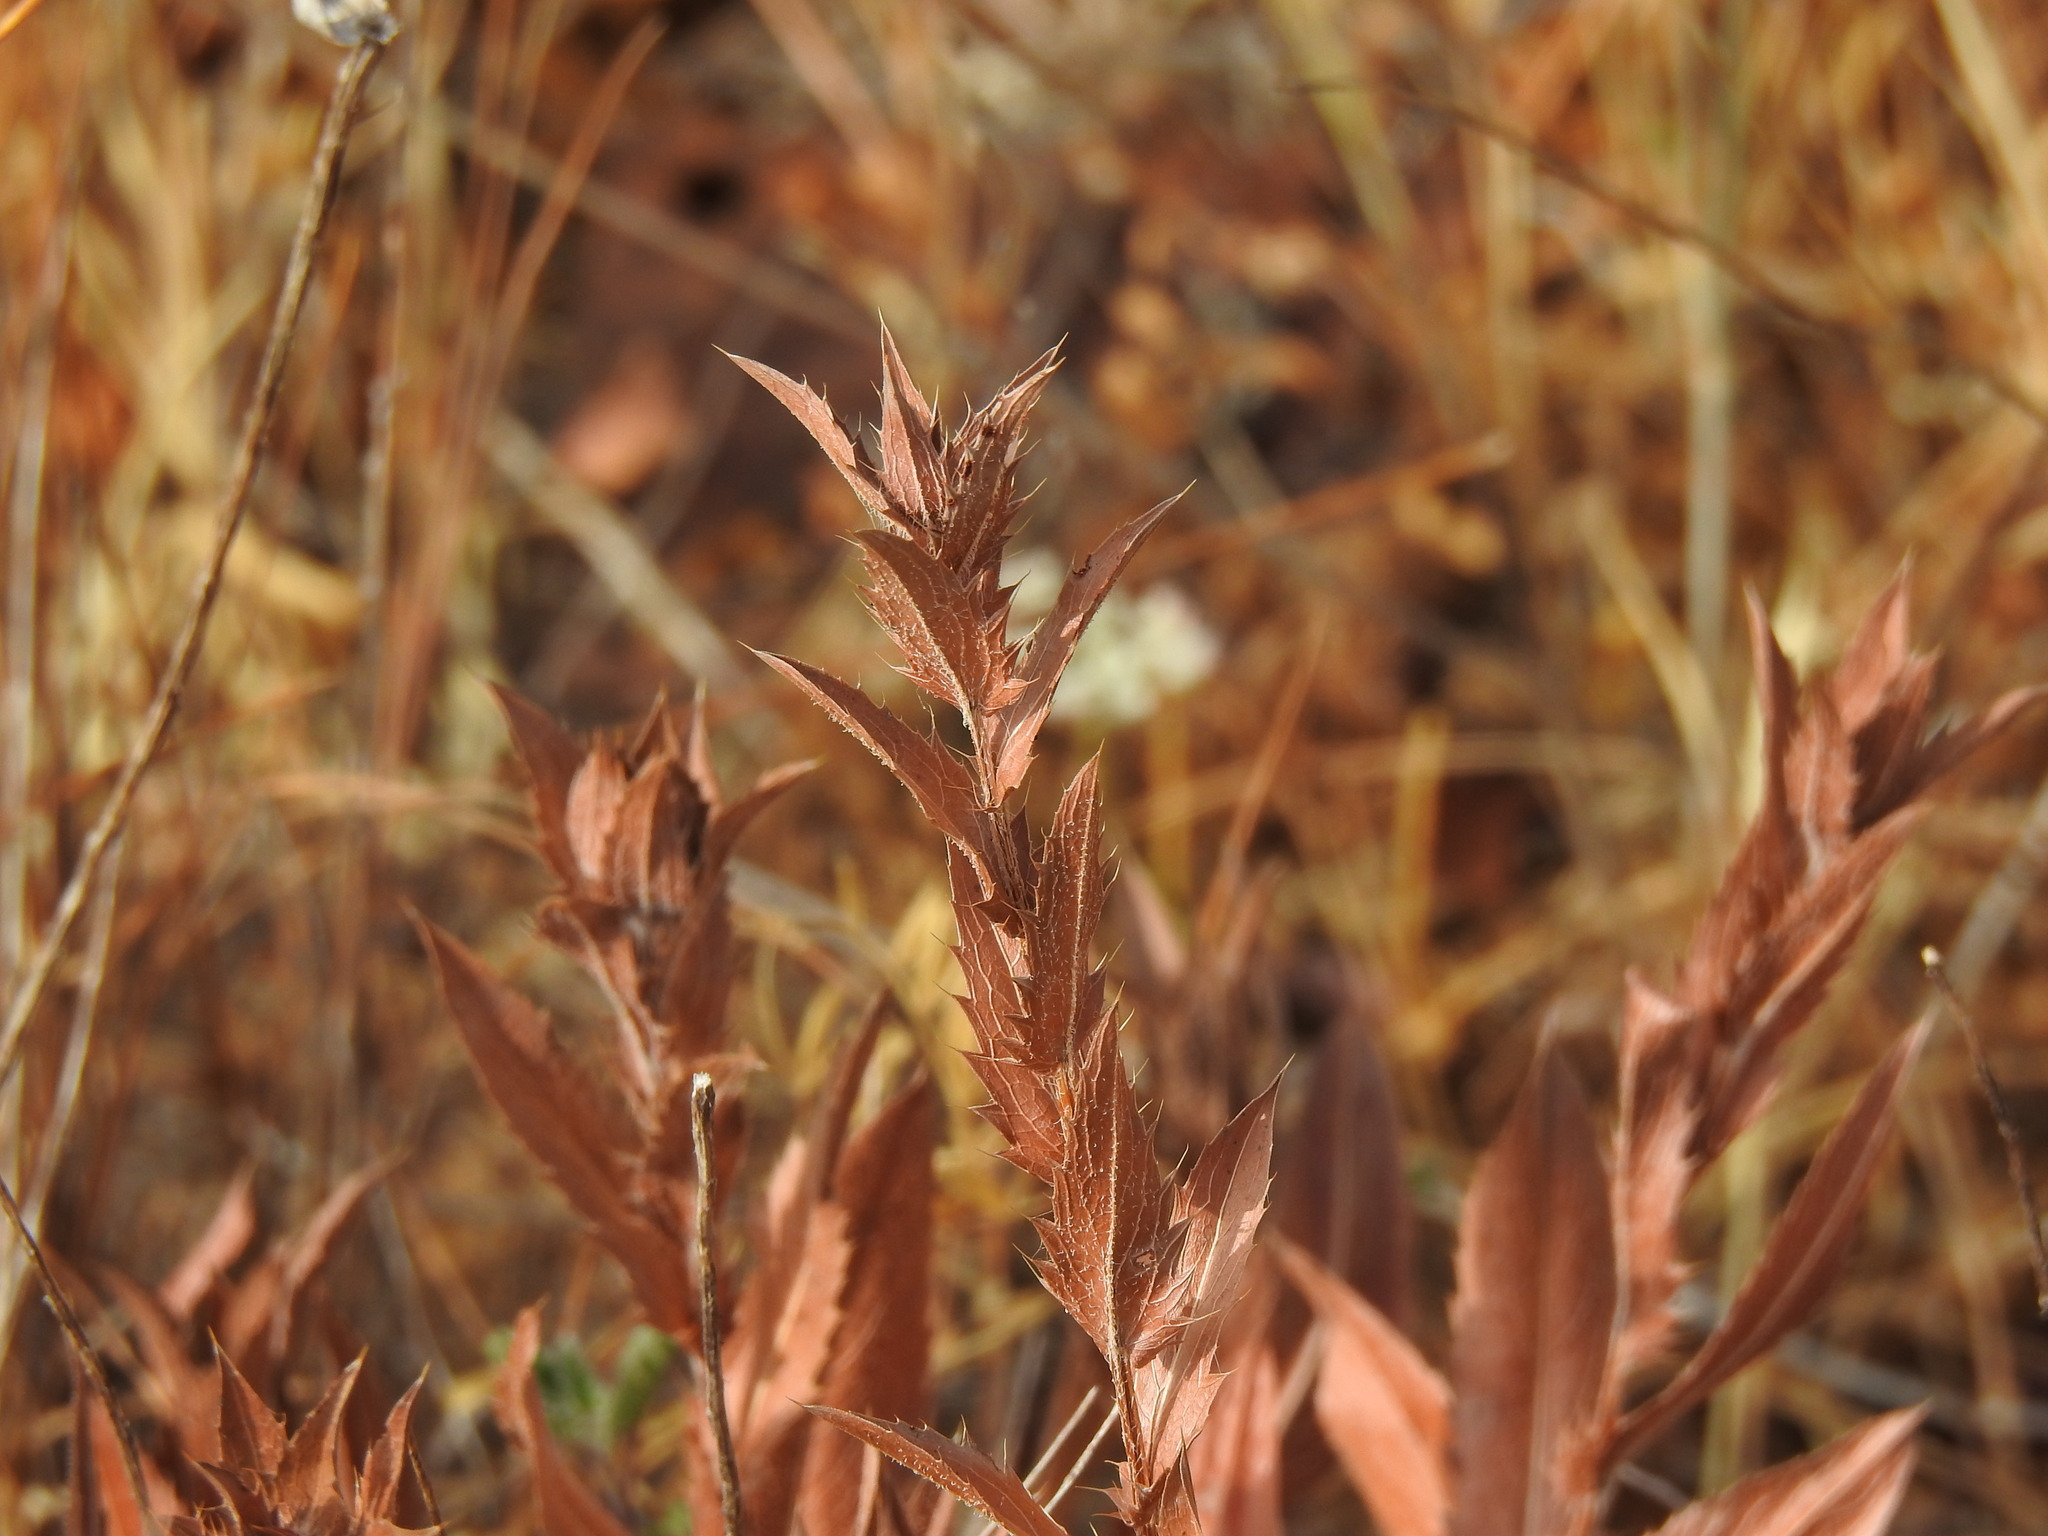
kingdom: Plantae
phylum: Tracheophyta
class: Magnoliopsida
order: Asterales
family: Asteraceae
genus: Carduncellus
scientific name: Carduncellus caeruleus
